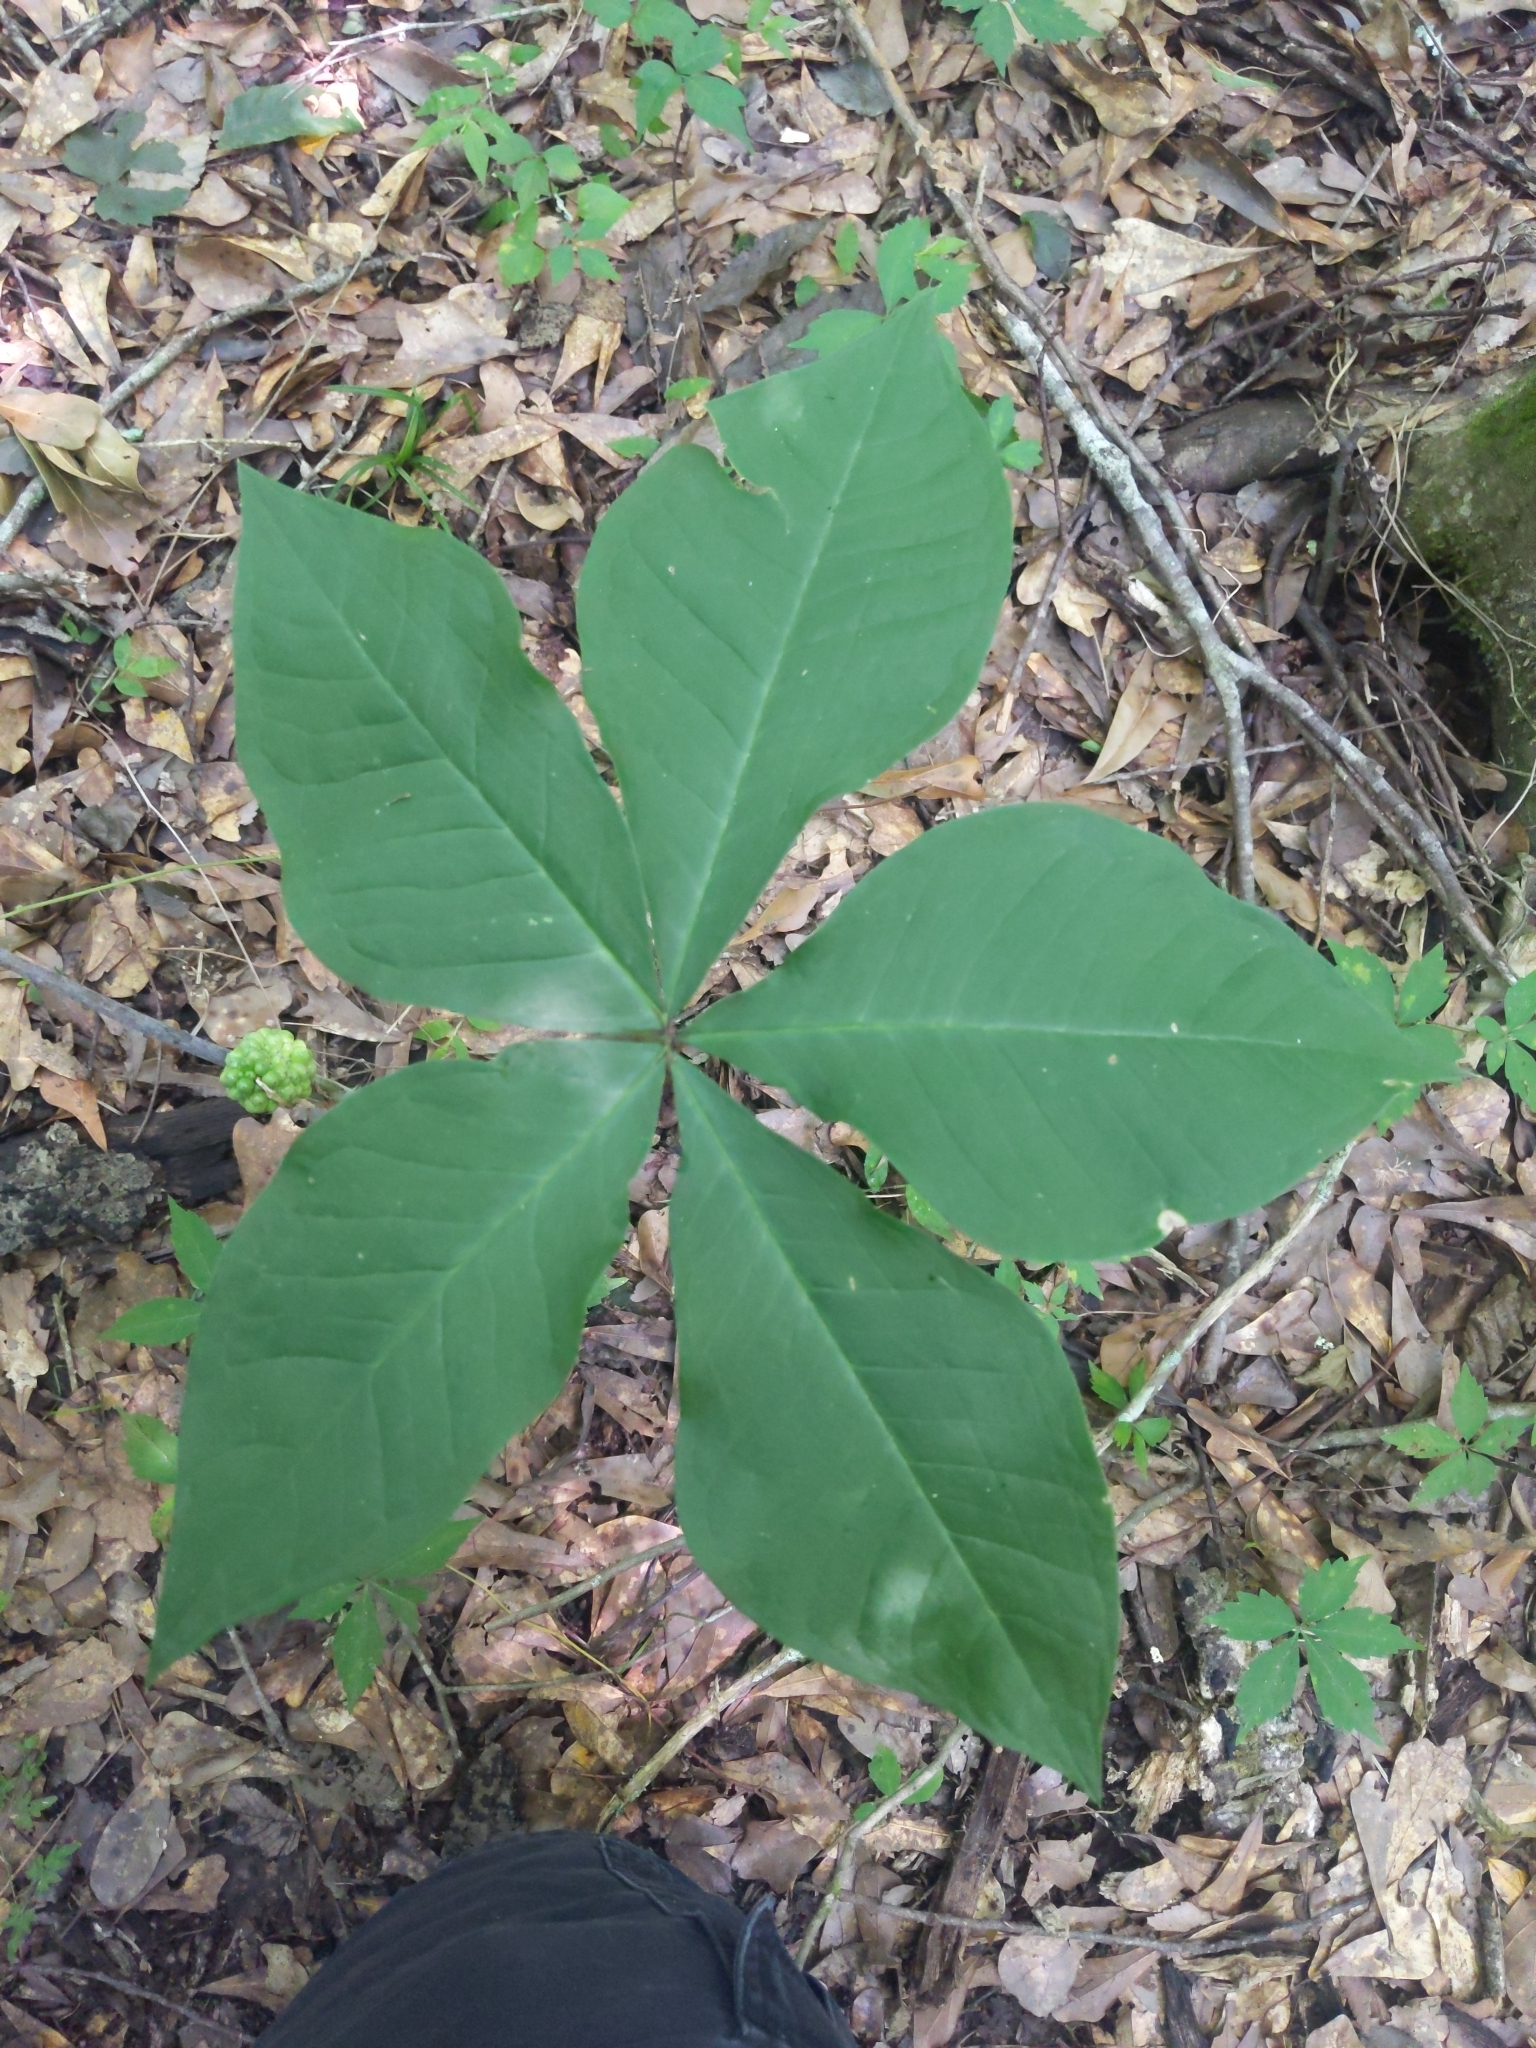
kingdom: Plantae
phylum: Tracheophyta
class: Liliopsida
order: Alismatales
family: Araceae
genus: Arisaema
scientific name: Arisaema quinatum
